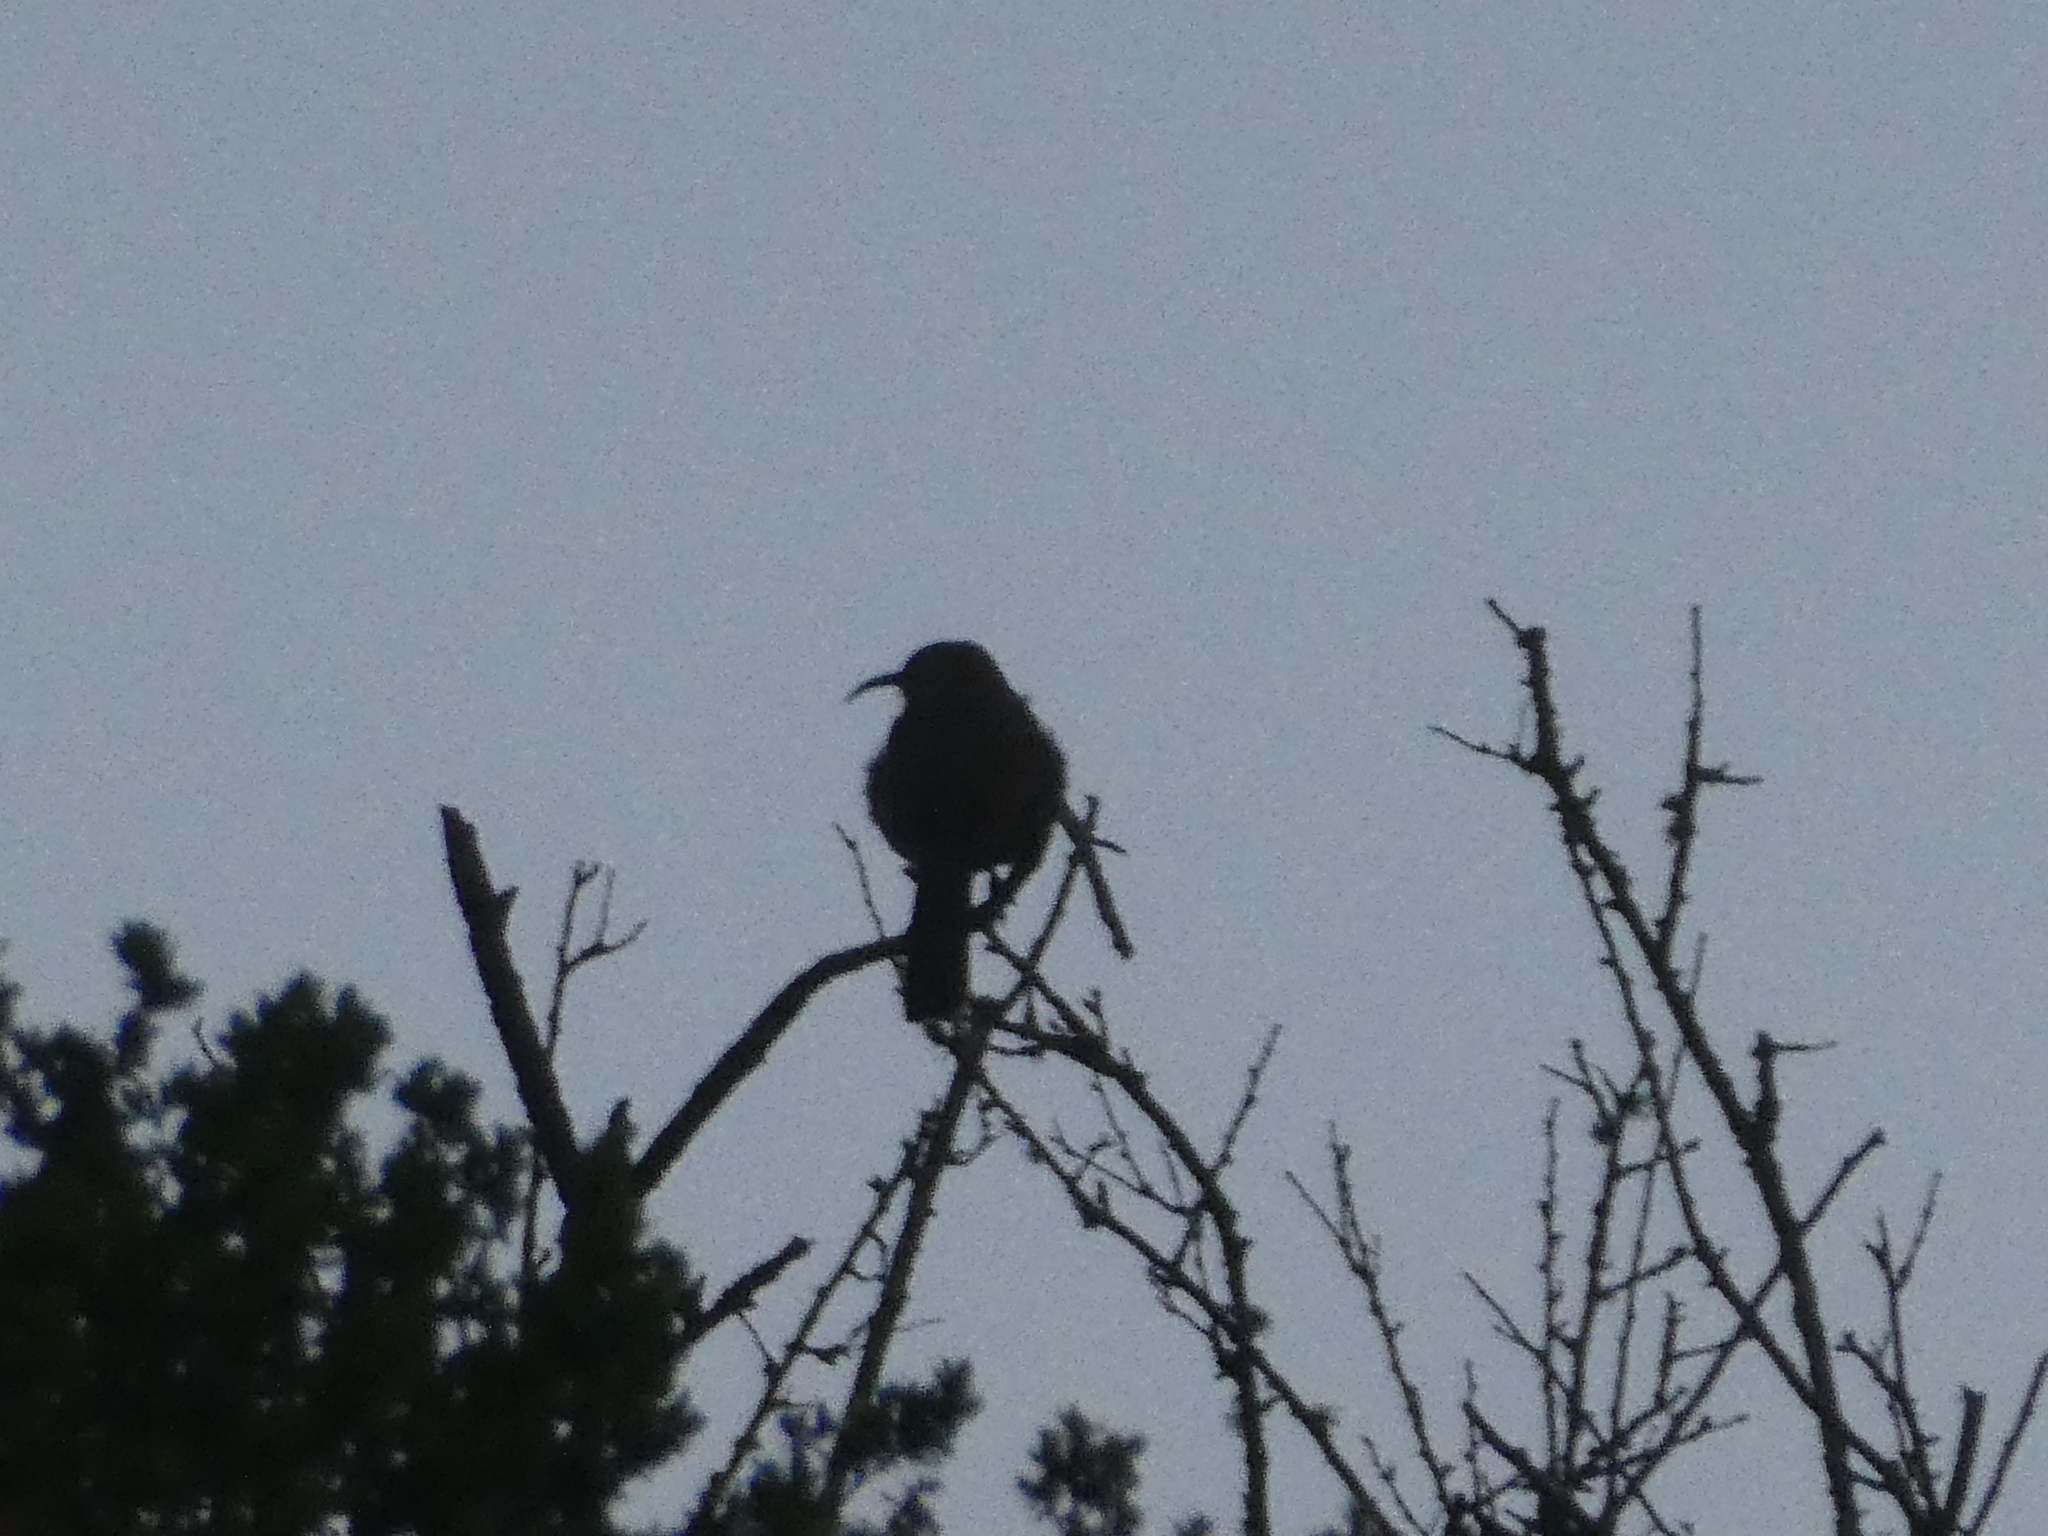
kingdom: Animalia
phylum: Chordata
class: Aves
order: Passeriformes
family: Mimidae
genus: Toxostoma
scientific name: Toxostoma redivivum
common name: California thrasher
